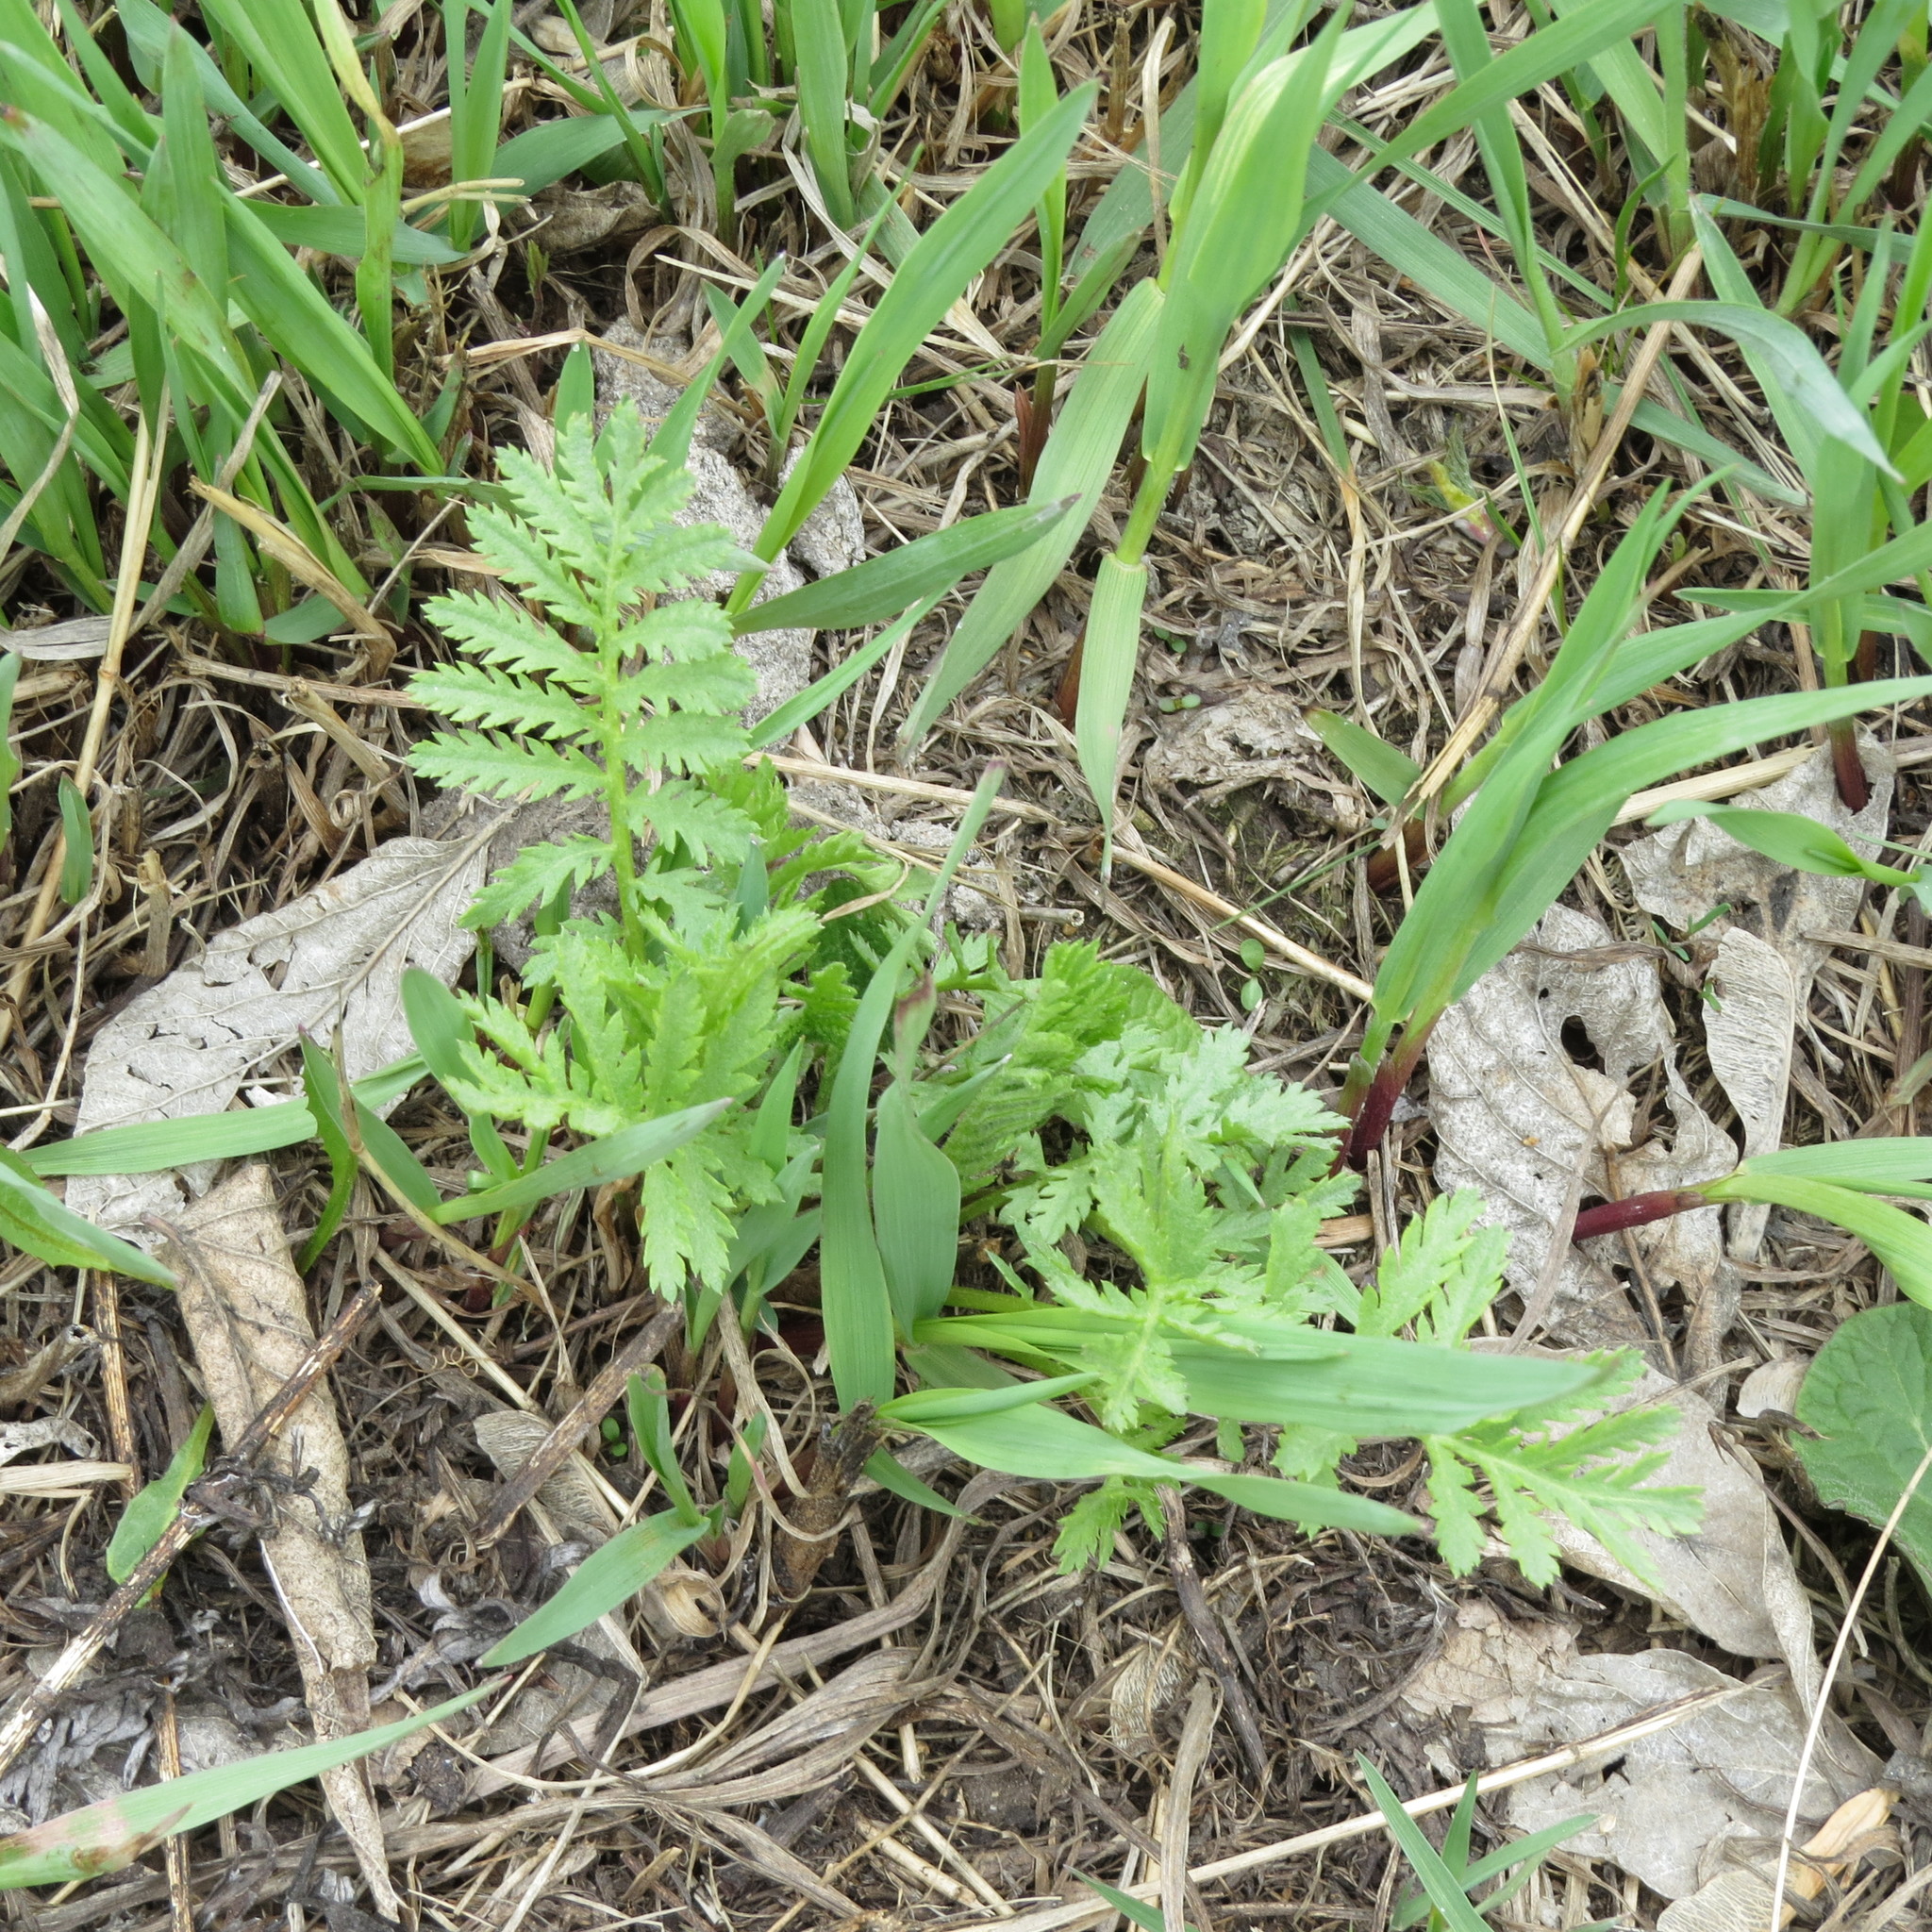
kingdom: Plantae
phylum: Tracheophyta
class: Magnoliopsida
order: Asterales
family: Asteraceae
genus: Tanacetum
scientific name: Tanacetum vulgare
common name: Common tansy
